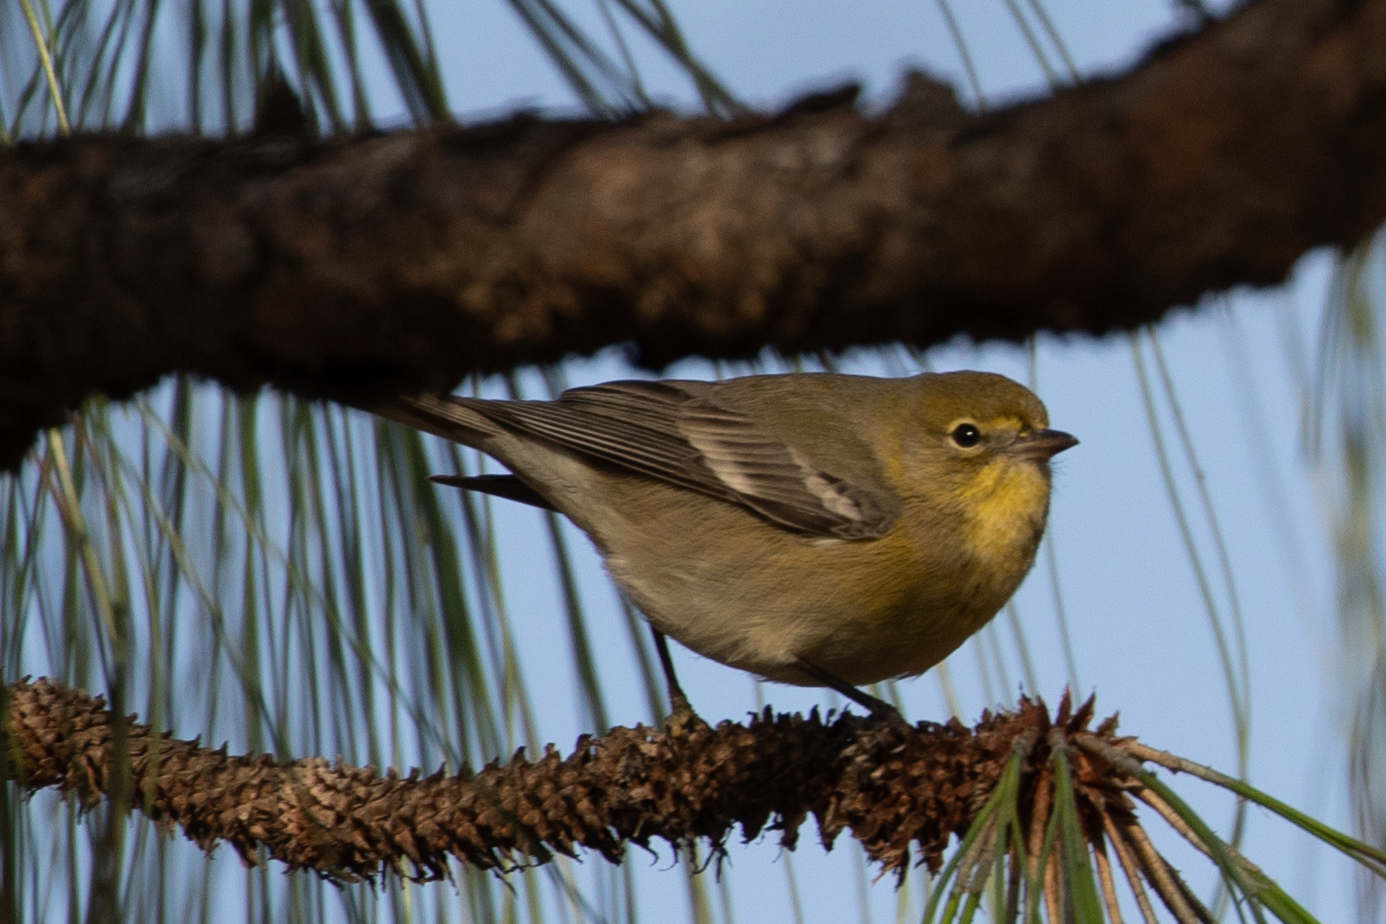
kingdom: Animalia
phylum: Chordata
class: Aves
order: Passeriformes
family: Parulidae
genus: Setophaga
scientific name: Setophaga pinus
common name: Pine warbler
